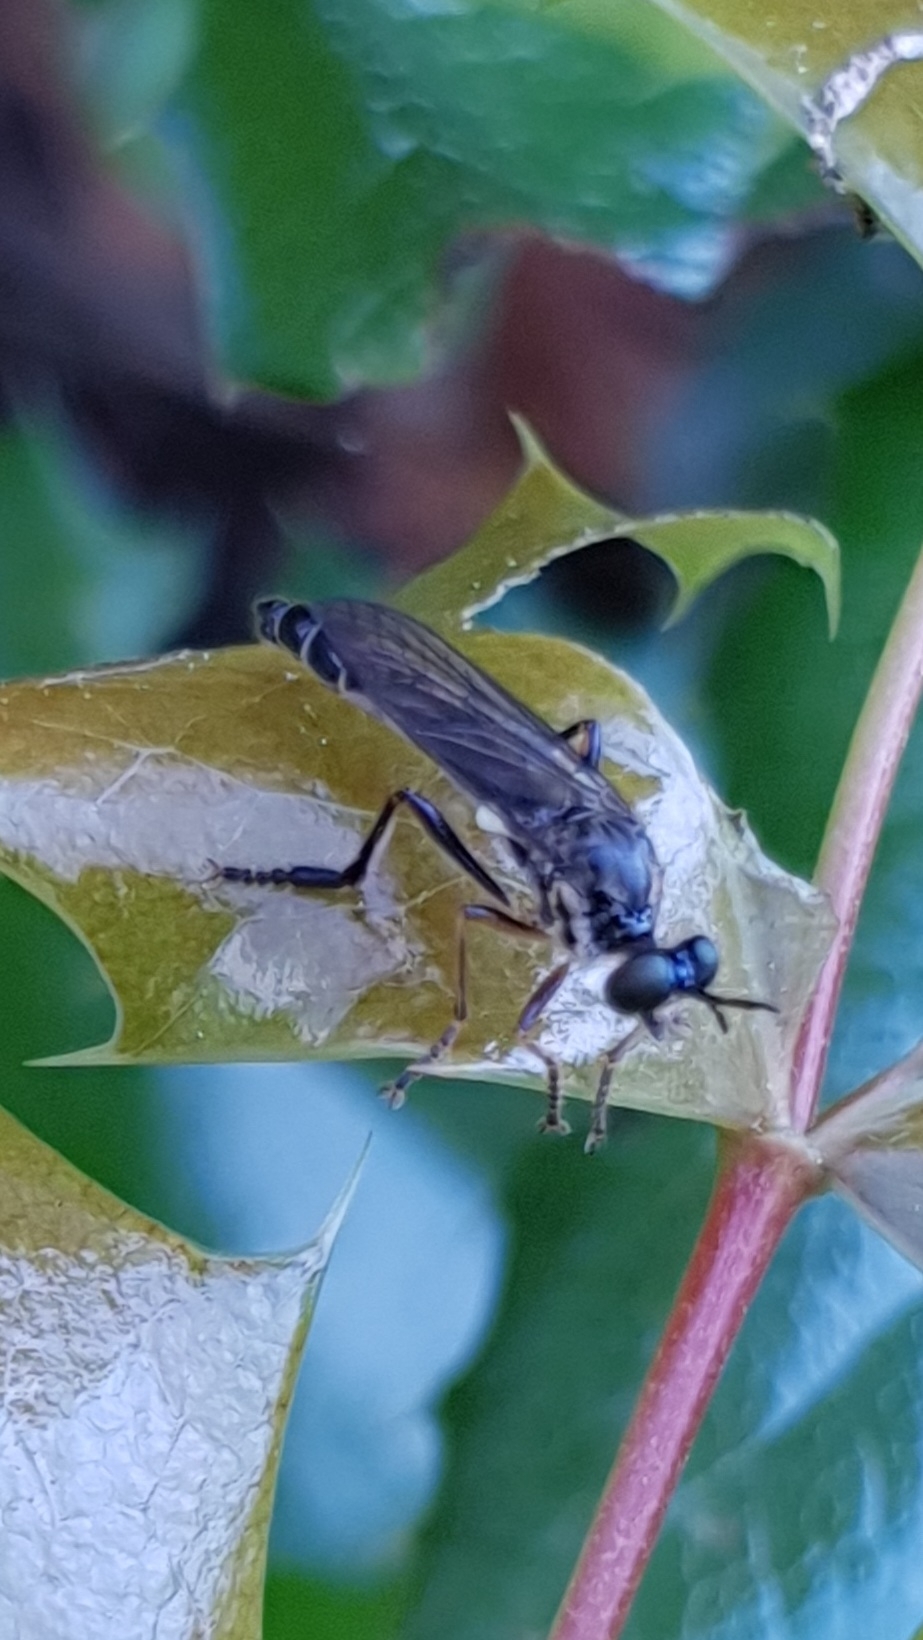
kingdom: Animalia
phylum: Arthropoda
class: Insecta
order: Diptera
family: Asilidae
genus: Dioctria
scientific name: Dioctria hyalipennis
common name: Stripe-legged robberfly
